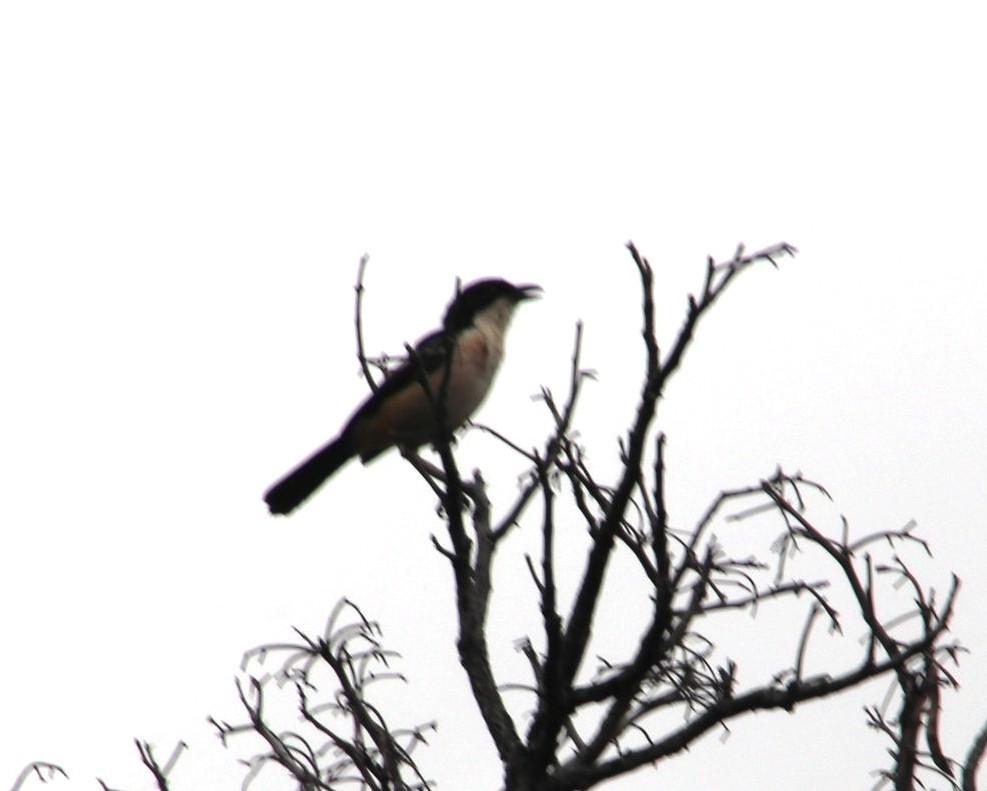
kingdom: Animalia
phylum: Chordata
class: Aves
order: Passeriformes
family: Malaconotidae
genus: Laniarius
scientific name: Laniarius ferrugineus
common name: Southern boubou
